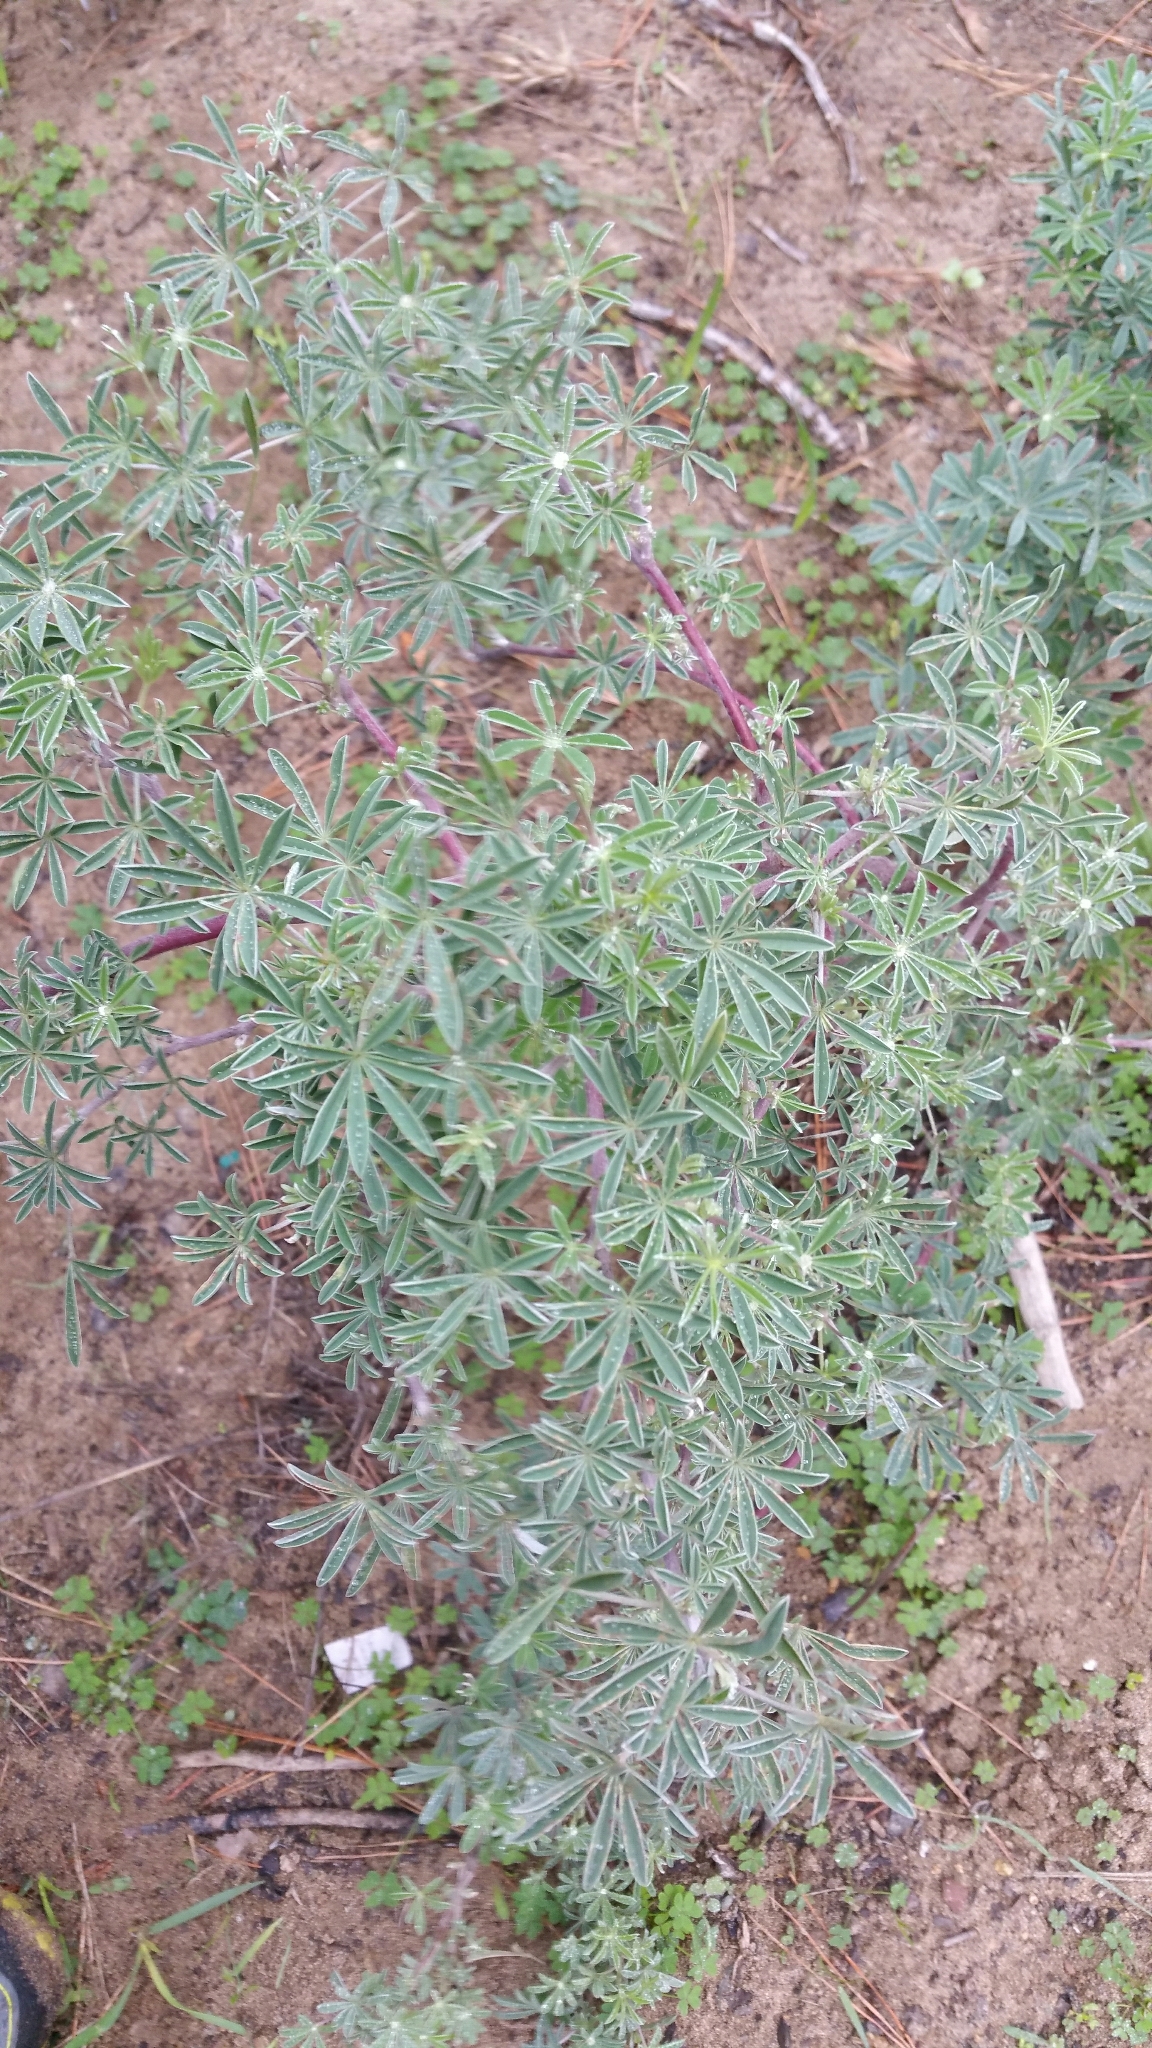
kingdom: Plantae
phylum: Tracheophyta
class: Magnoliopsida
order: Fabales
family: Fabaceae
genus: Lupinus
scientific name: Lupinus arboreus
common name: Yellow bush lupine
